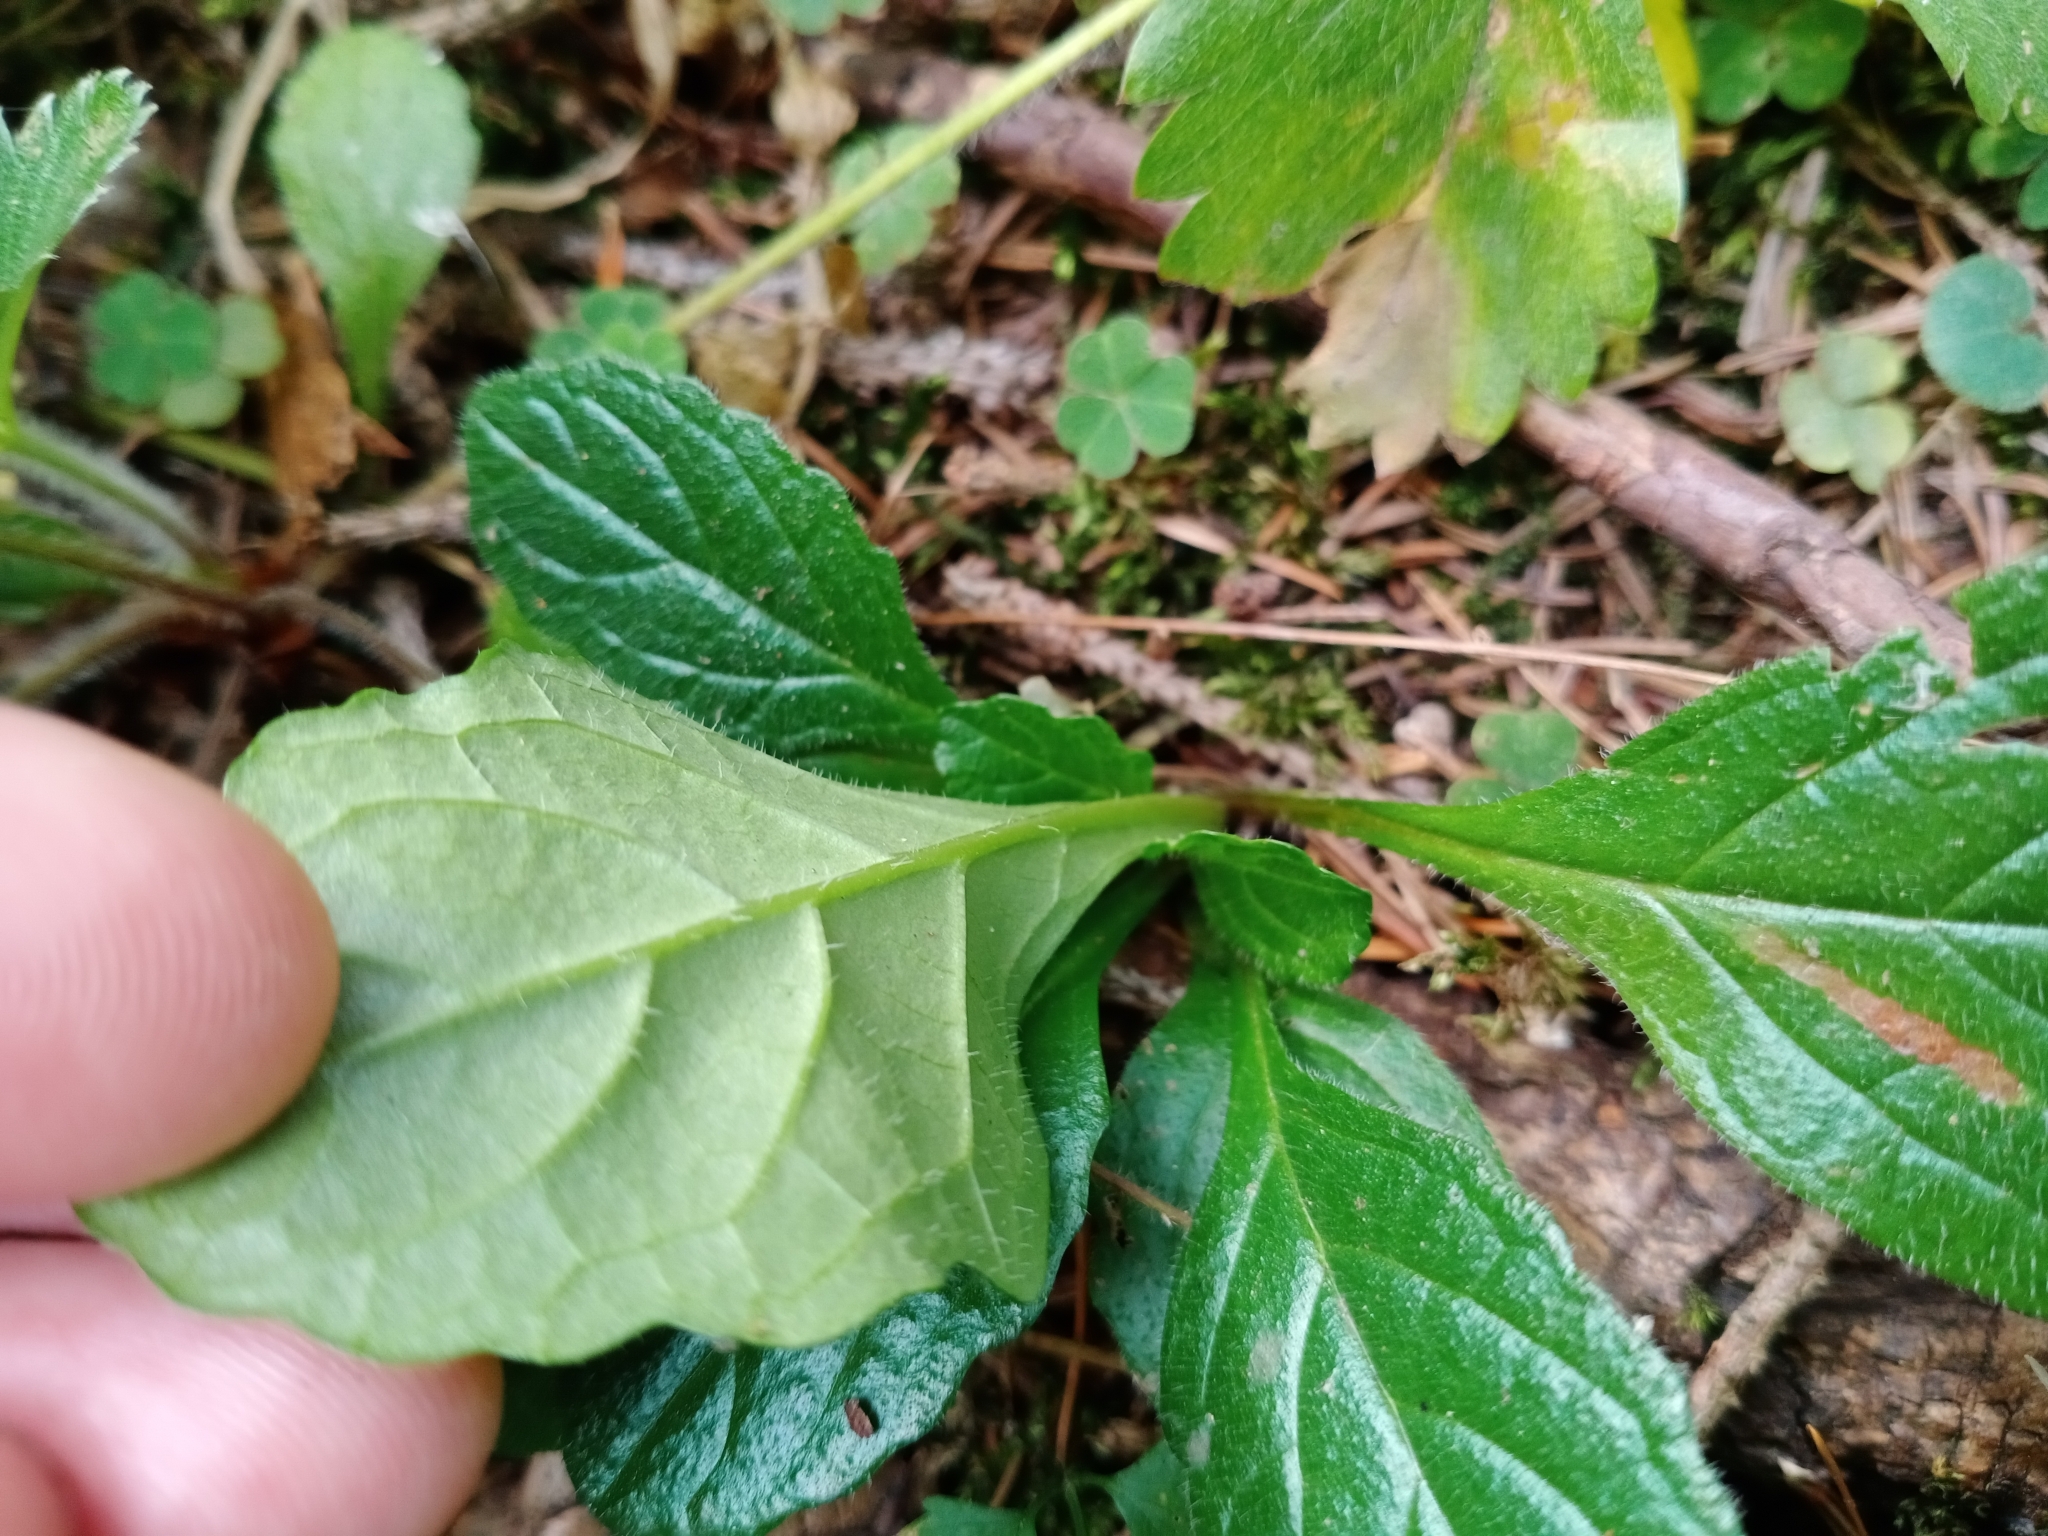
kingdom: Plantae
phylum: Tracheophyta
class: Magnoliopsida
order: Lamiales
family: Lamiaceae
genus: Ajuga
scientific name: Ajuga reptans
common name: Bugle
